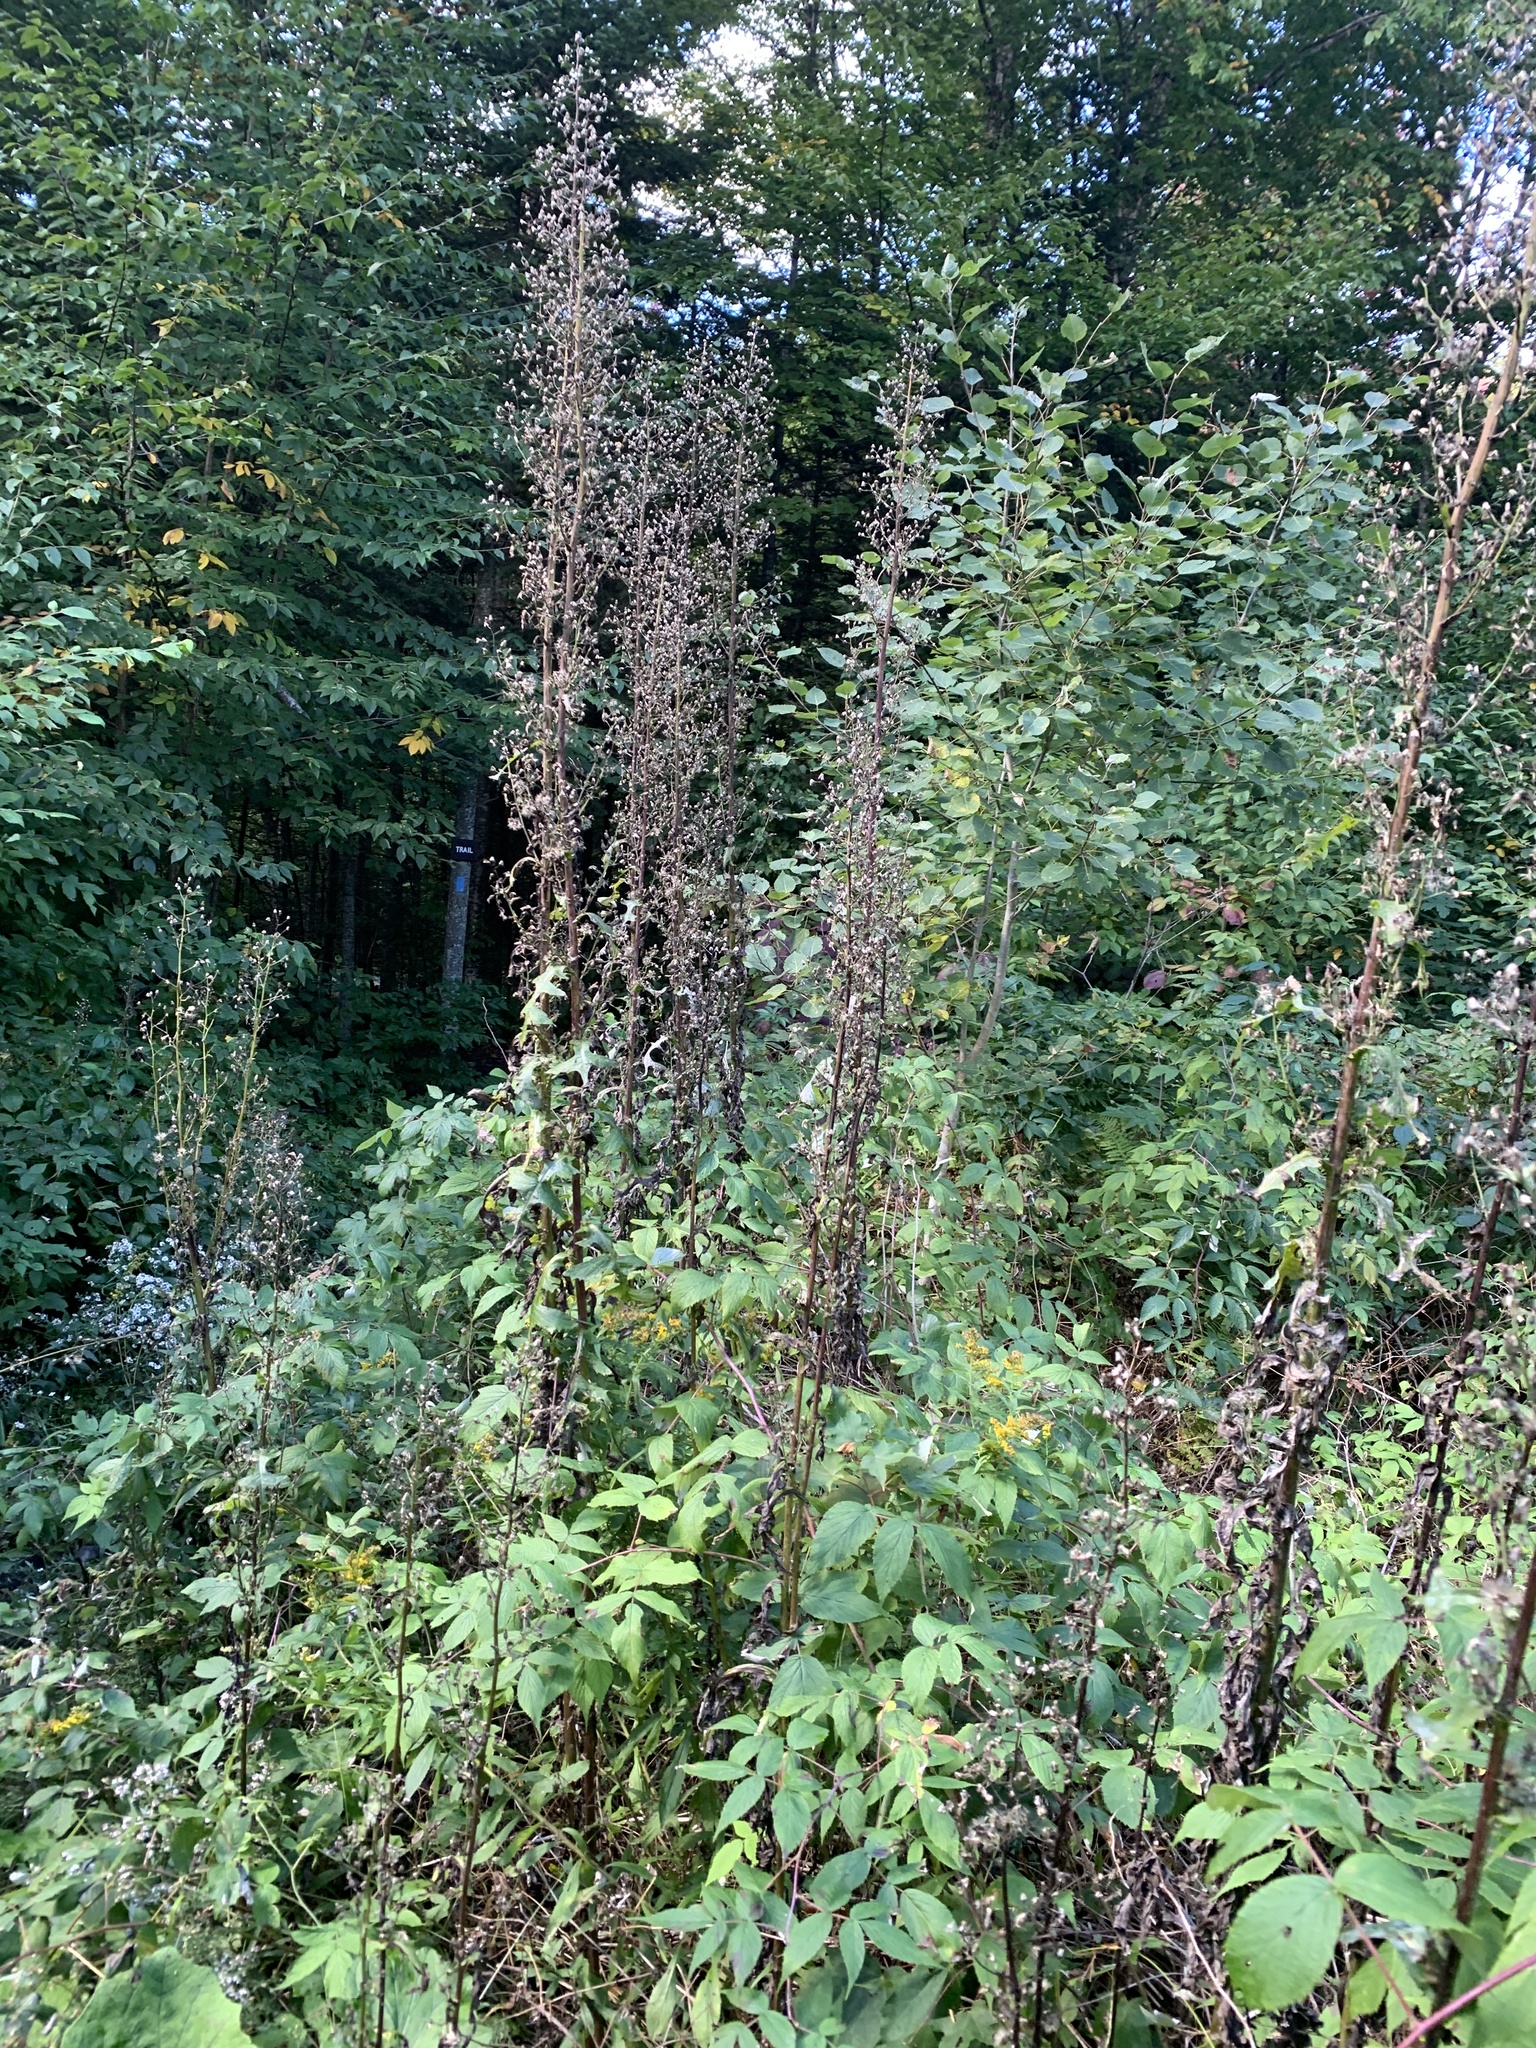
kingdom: Plantae
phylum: Tracheophyta
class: Magnoliopsida
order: Asterales
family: Asteraceae
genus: Lactuca
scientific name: Lactuca biennis
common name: Blue wood lettuce
